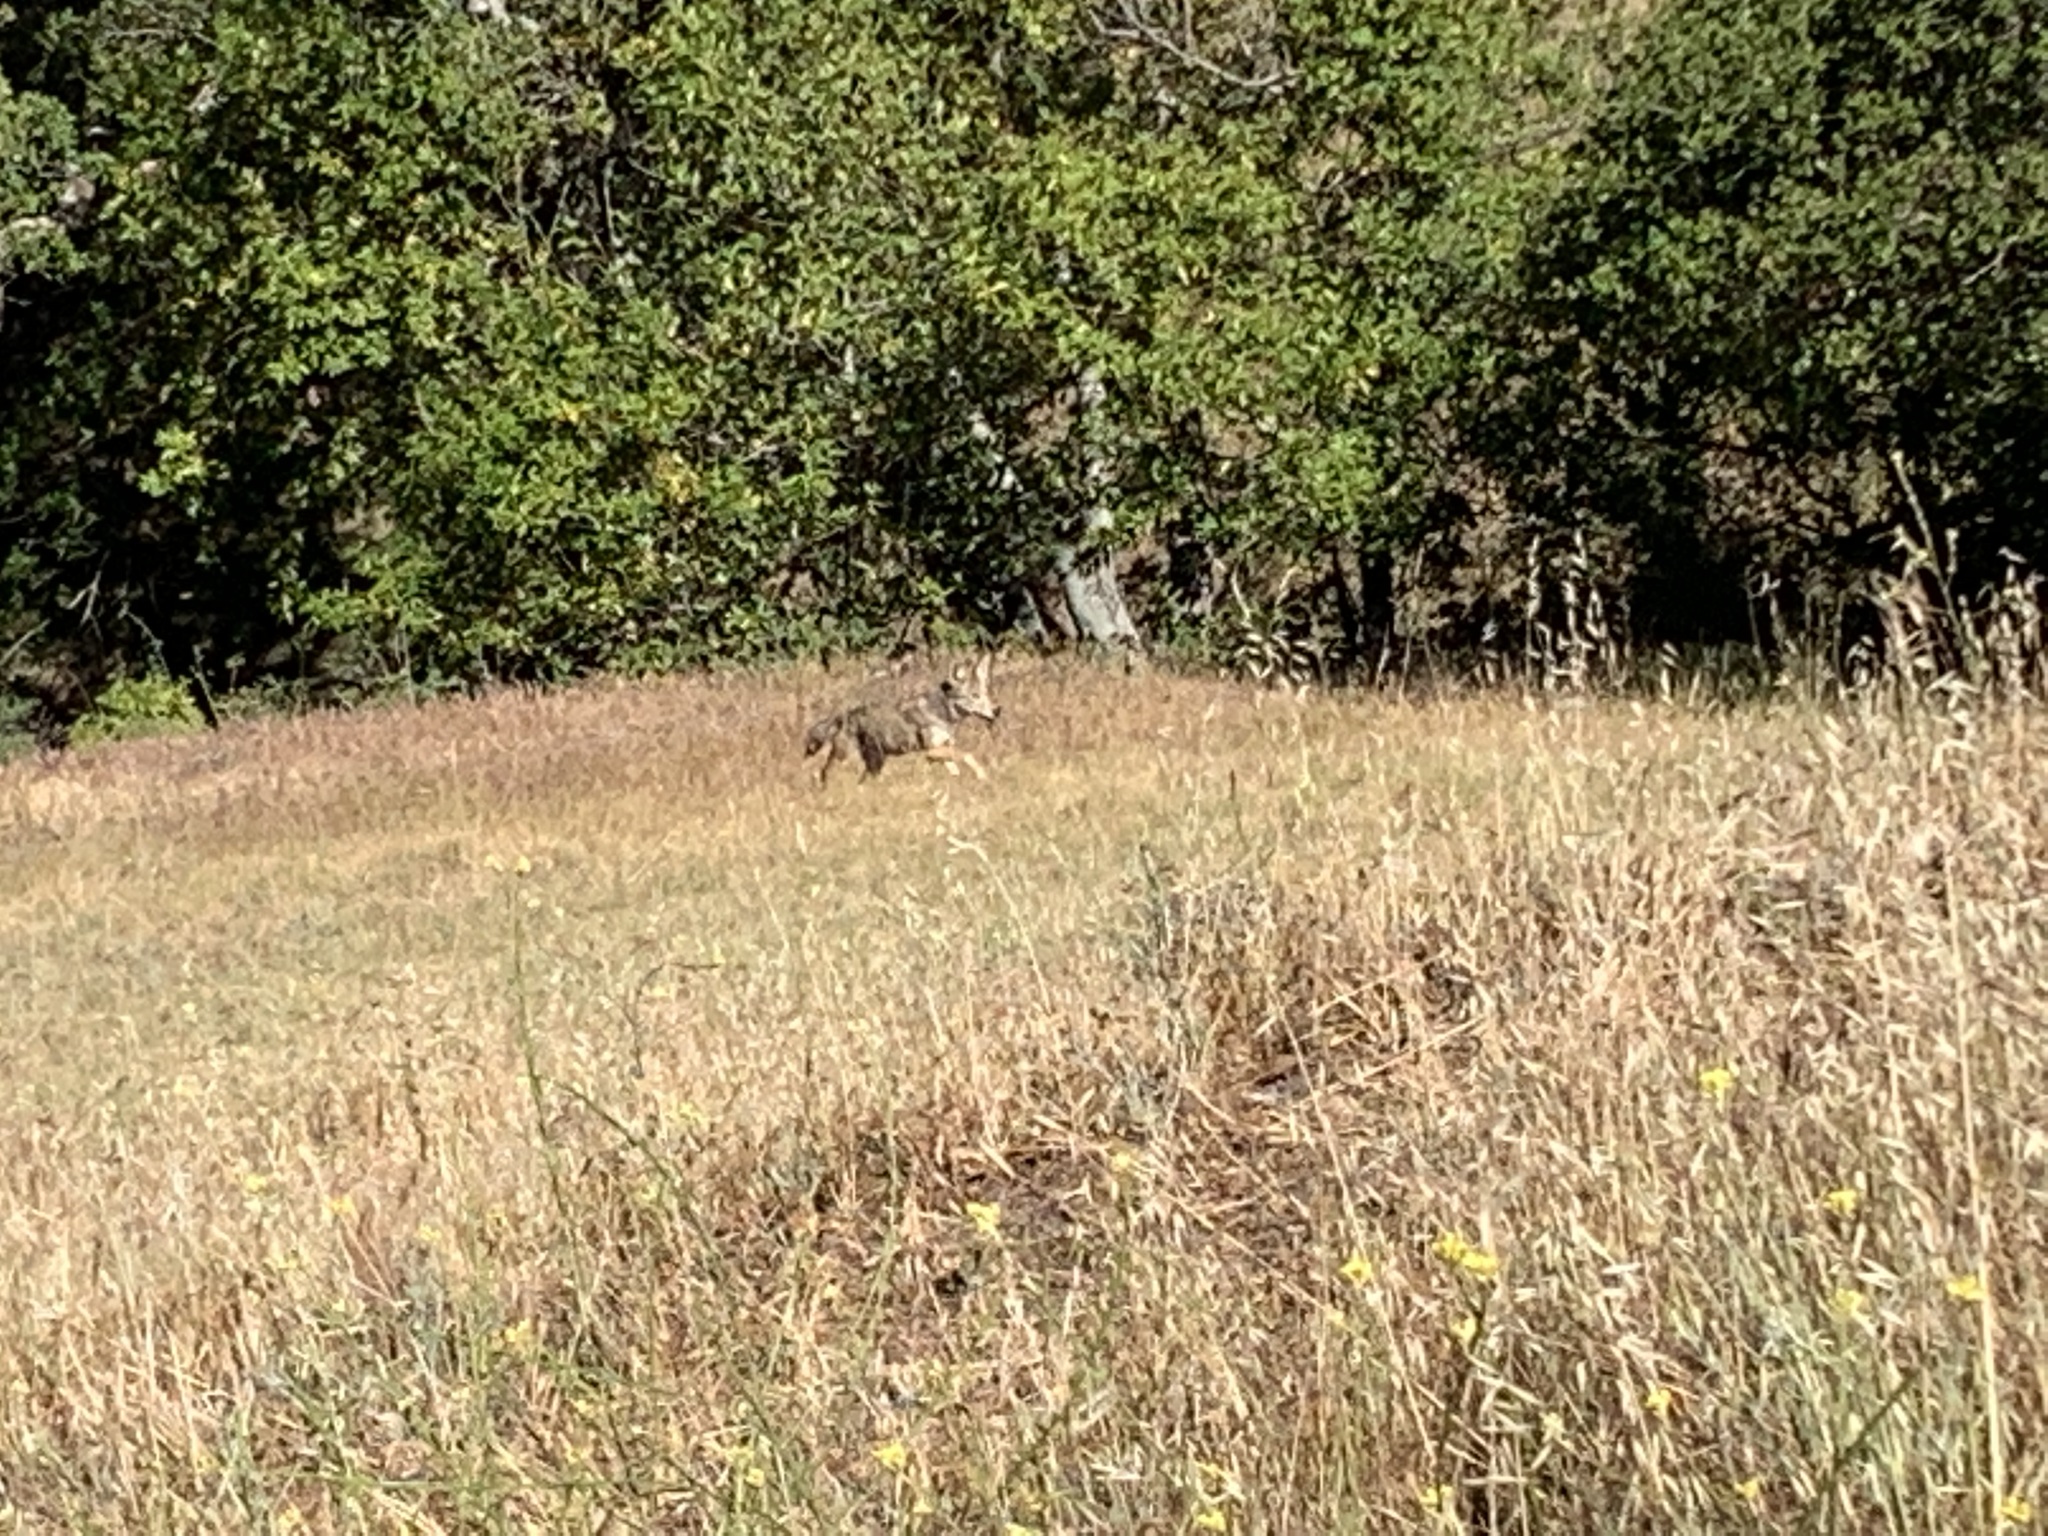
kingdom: Animalia
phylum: Chordata
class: Mammalia
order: Carnivora
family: Canidae
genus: Canis
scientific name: Canis latrans
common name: Coyote
